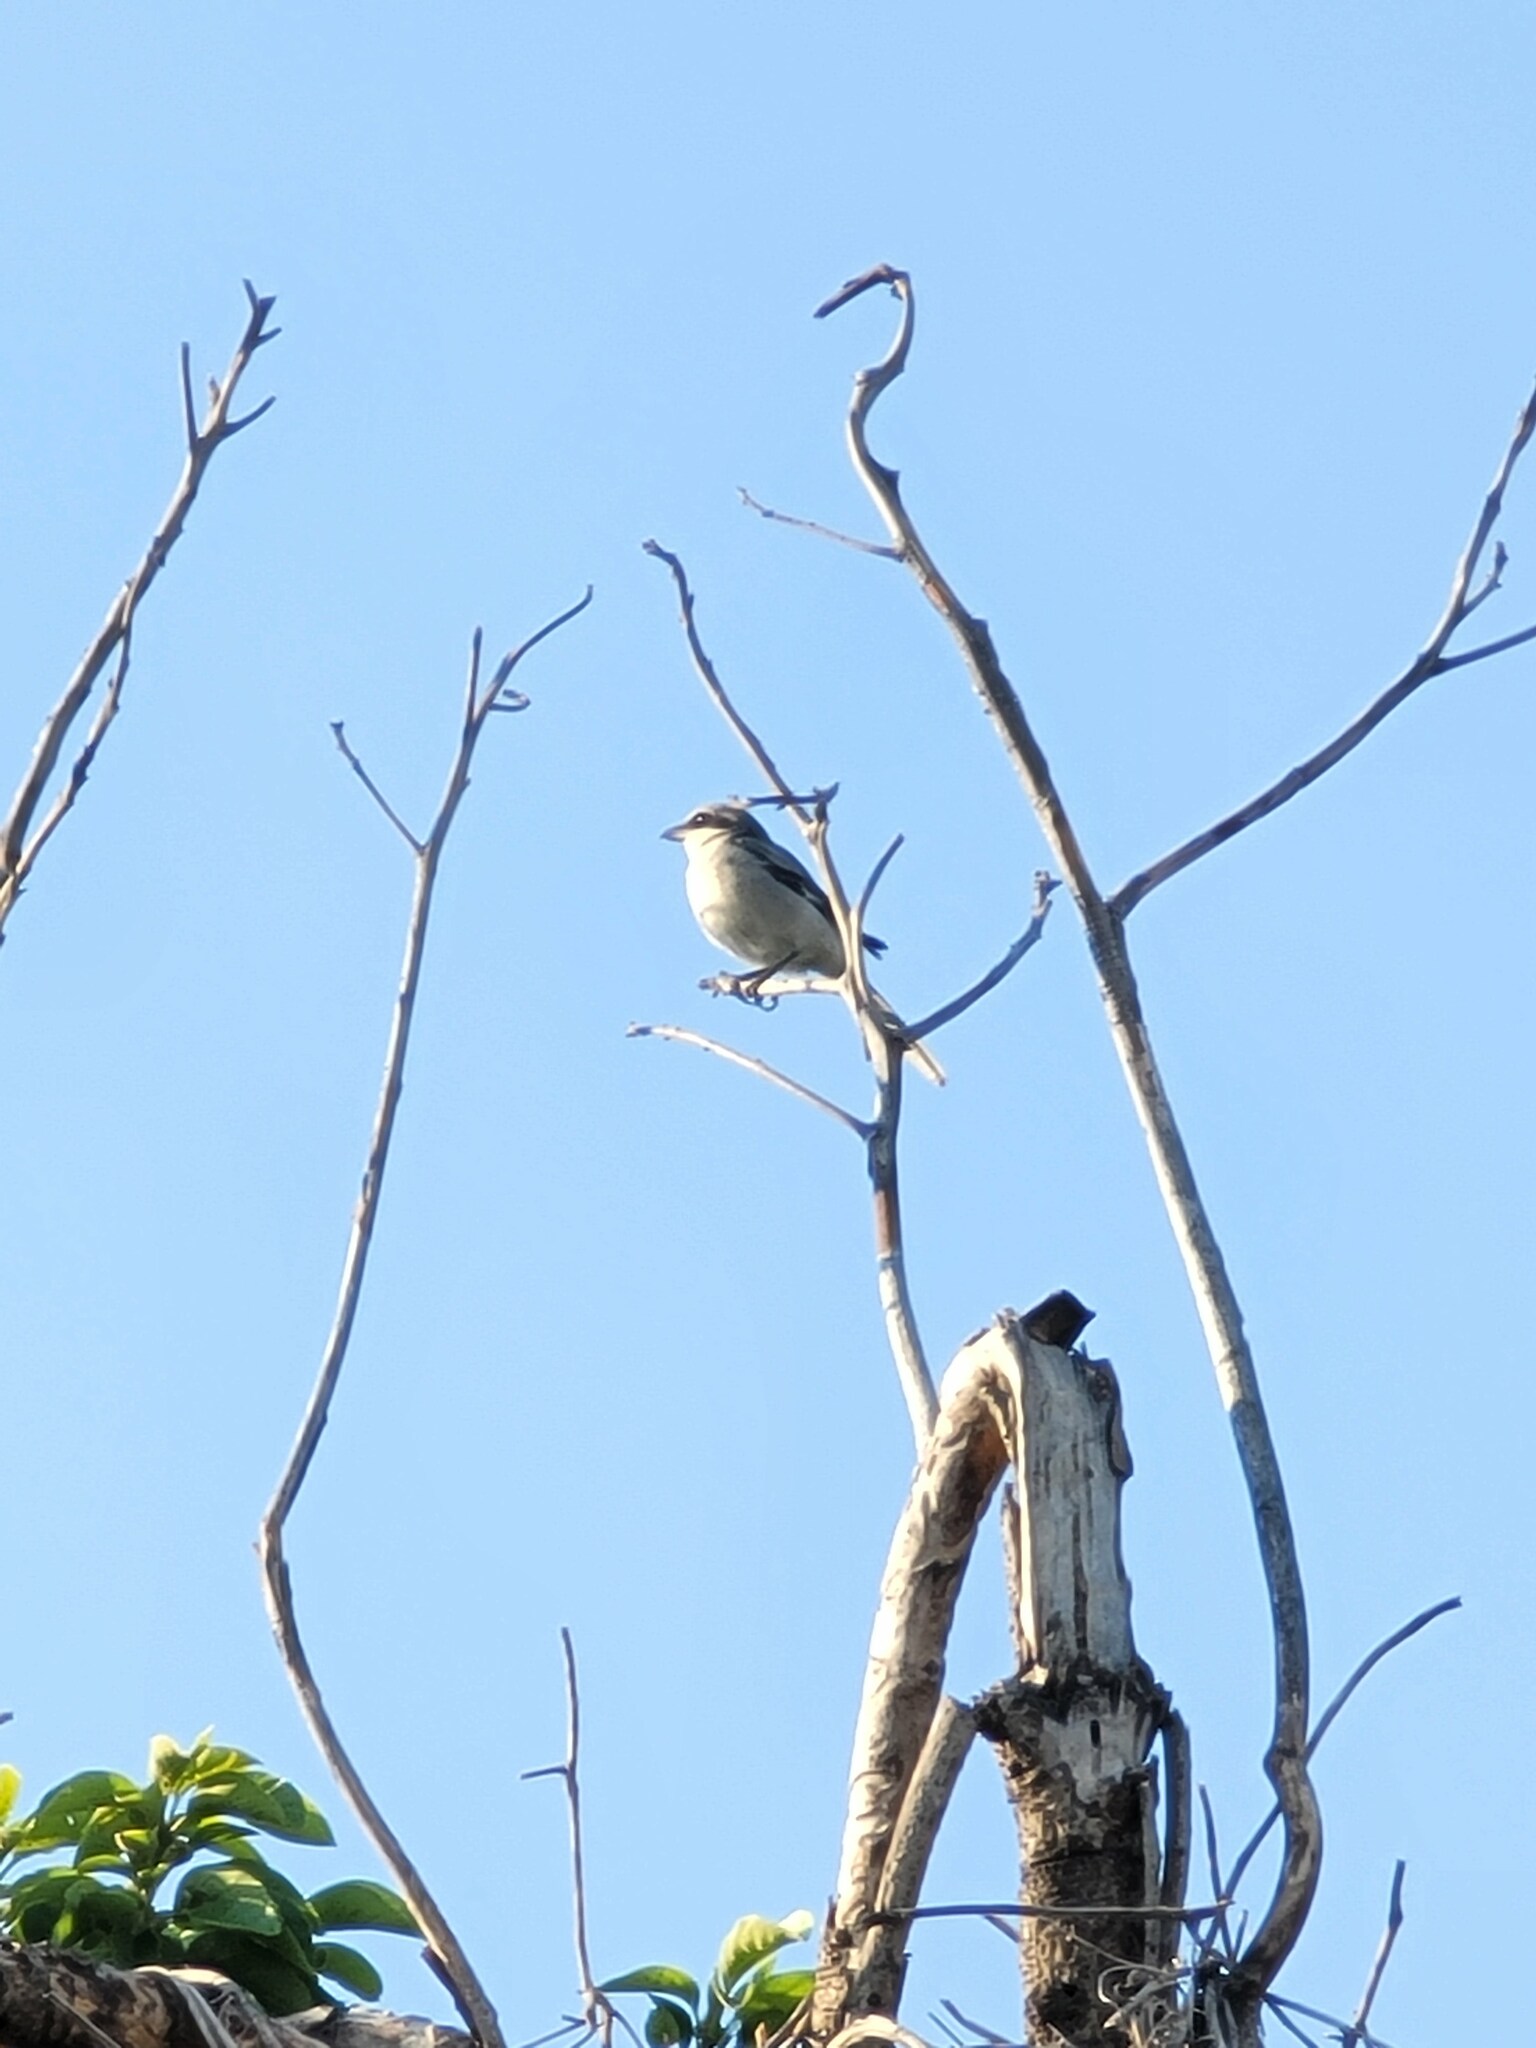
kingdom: Animalia
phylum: Chordata
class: Aves
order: Passeriformes
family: Laniidae
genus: Lanius
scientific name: Lanius ludovicianus
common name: Loggerhead shrike
